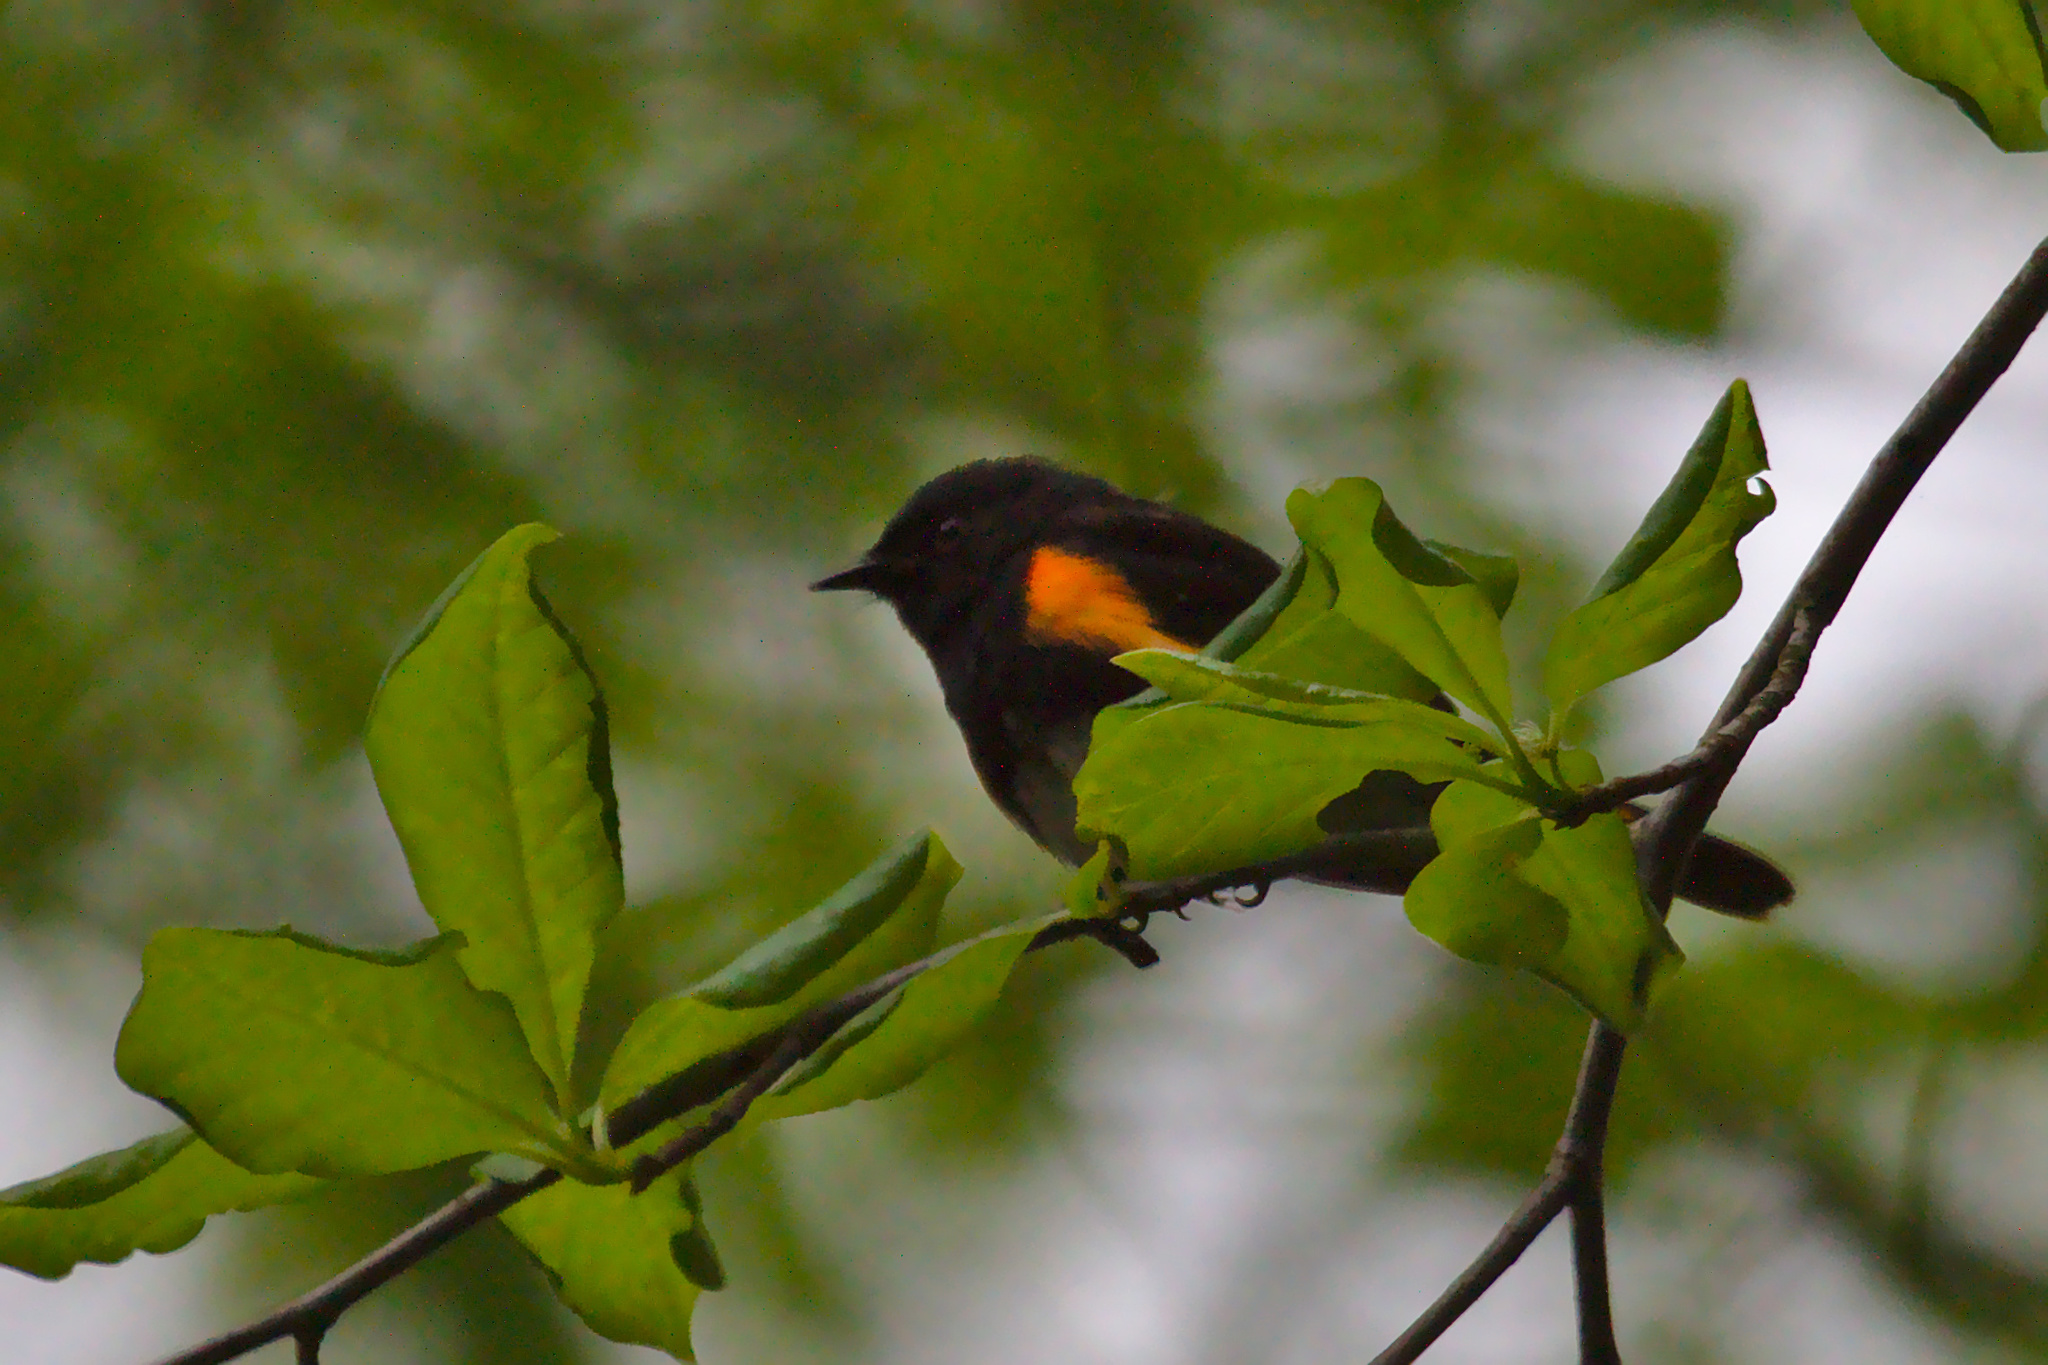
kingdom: Animalia
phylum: Chordata
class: Aves
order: Passeriformes
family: Parulidae
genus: Setophaga
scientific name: Setophaga ruticilla
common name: American redstart
